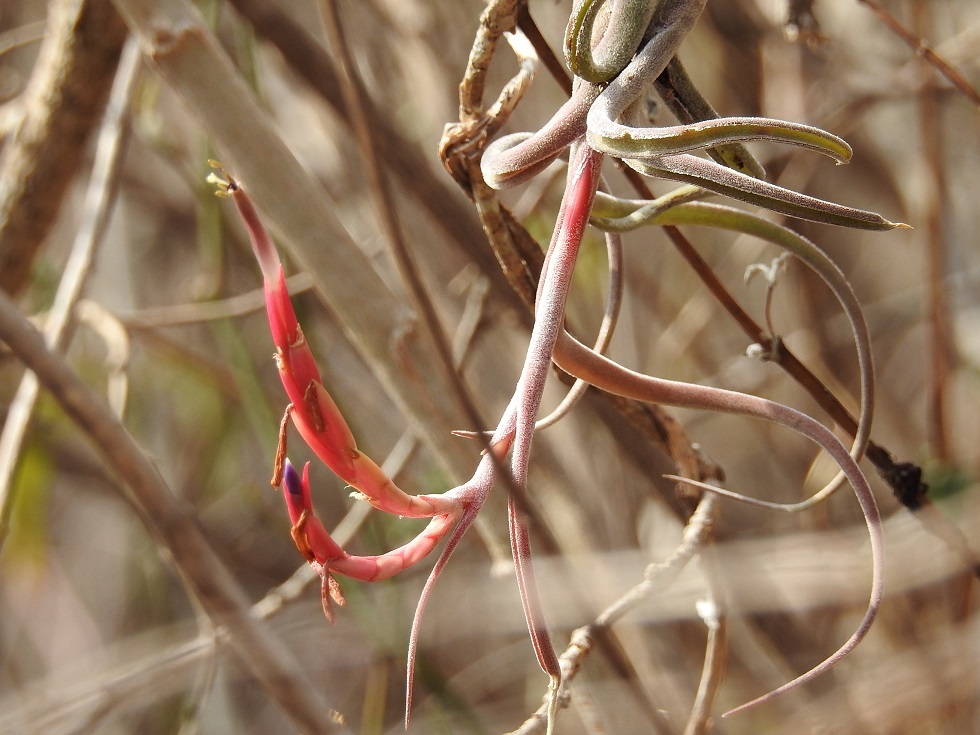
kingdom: Plantae
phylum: Tracheophyta
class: Liliopsida
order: Poales
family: Bromeliaceae
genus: Tillandsia
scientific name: Tillandsia caput-medusae
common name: Octopus plant
